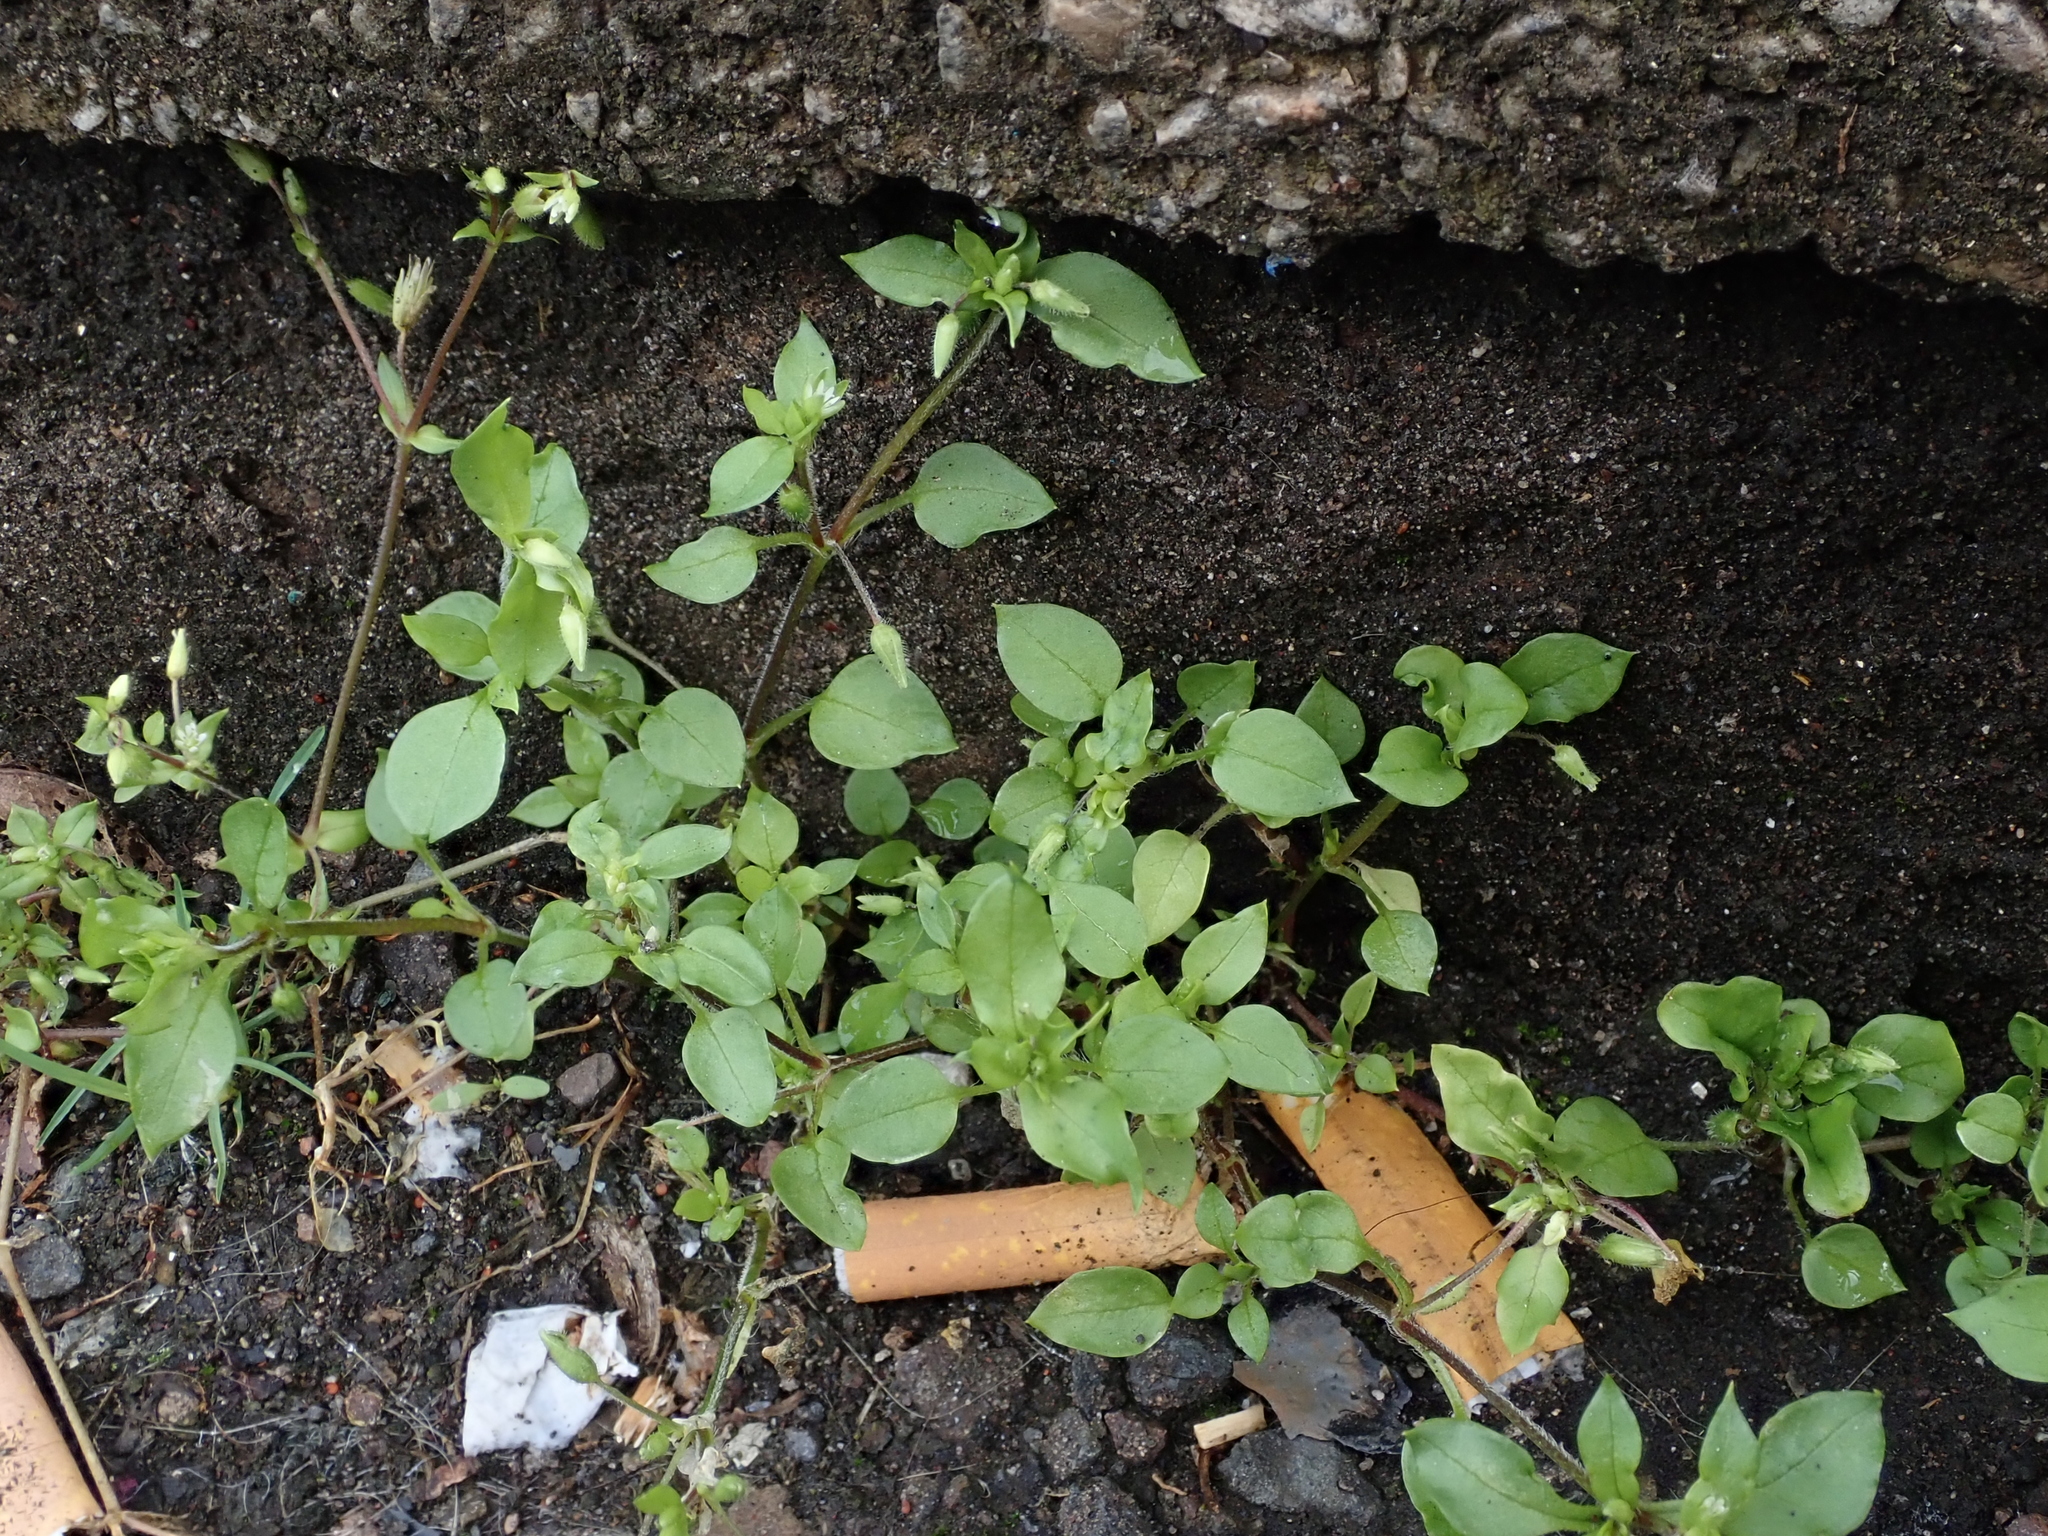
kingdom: Plantae
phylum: Tracheophyta
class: Magnoliopsida
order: Caryophyllales
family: Caryophyllaceae
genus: Stellaria
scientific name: Stellaria media
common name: Common chickweed
